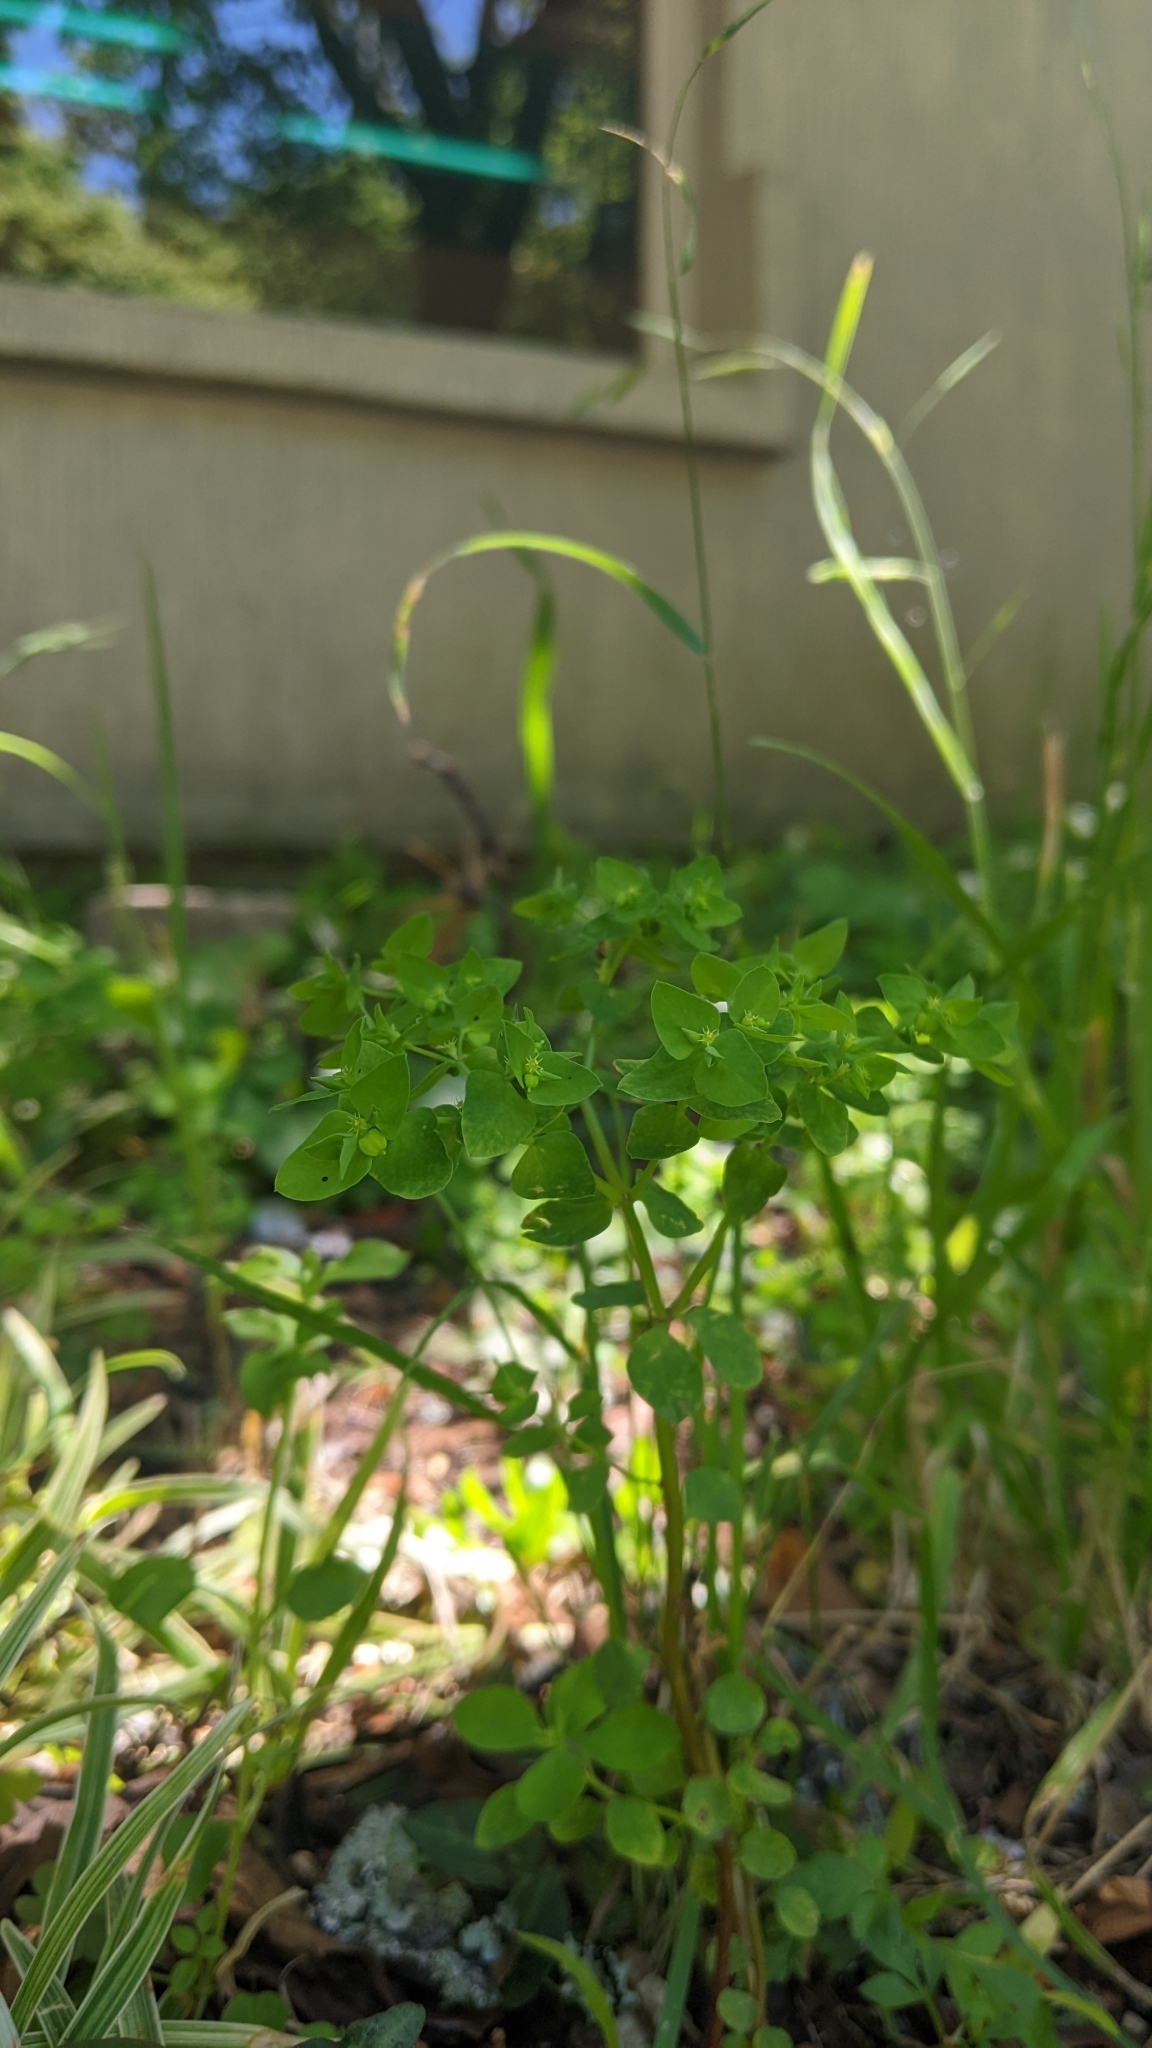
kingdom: Plantae
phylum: Tracheophyta
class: Magnoliopsida
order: Malpighiales
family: Euphorbiaceae
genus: Euphorbia
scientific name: Euphorbia peplus
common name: Petty spurge
